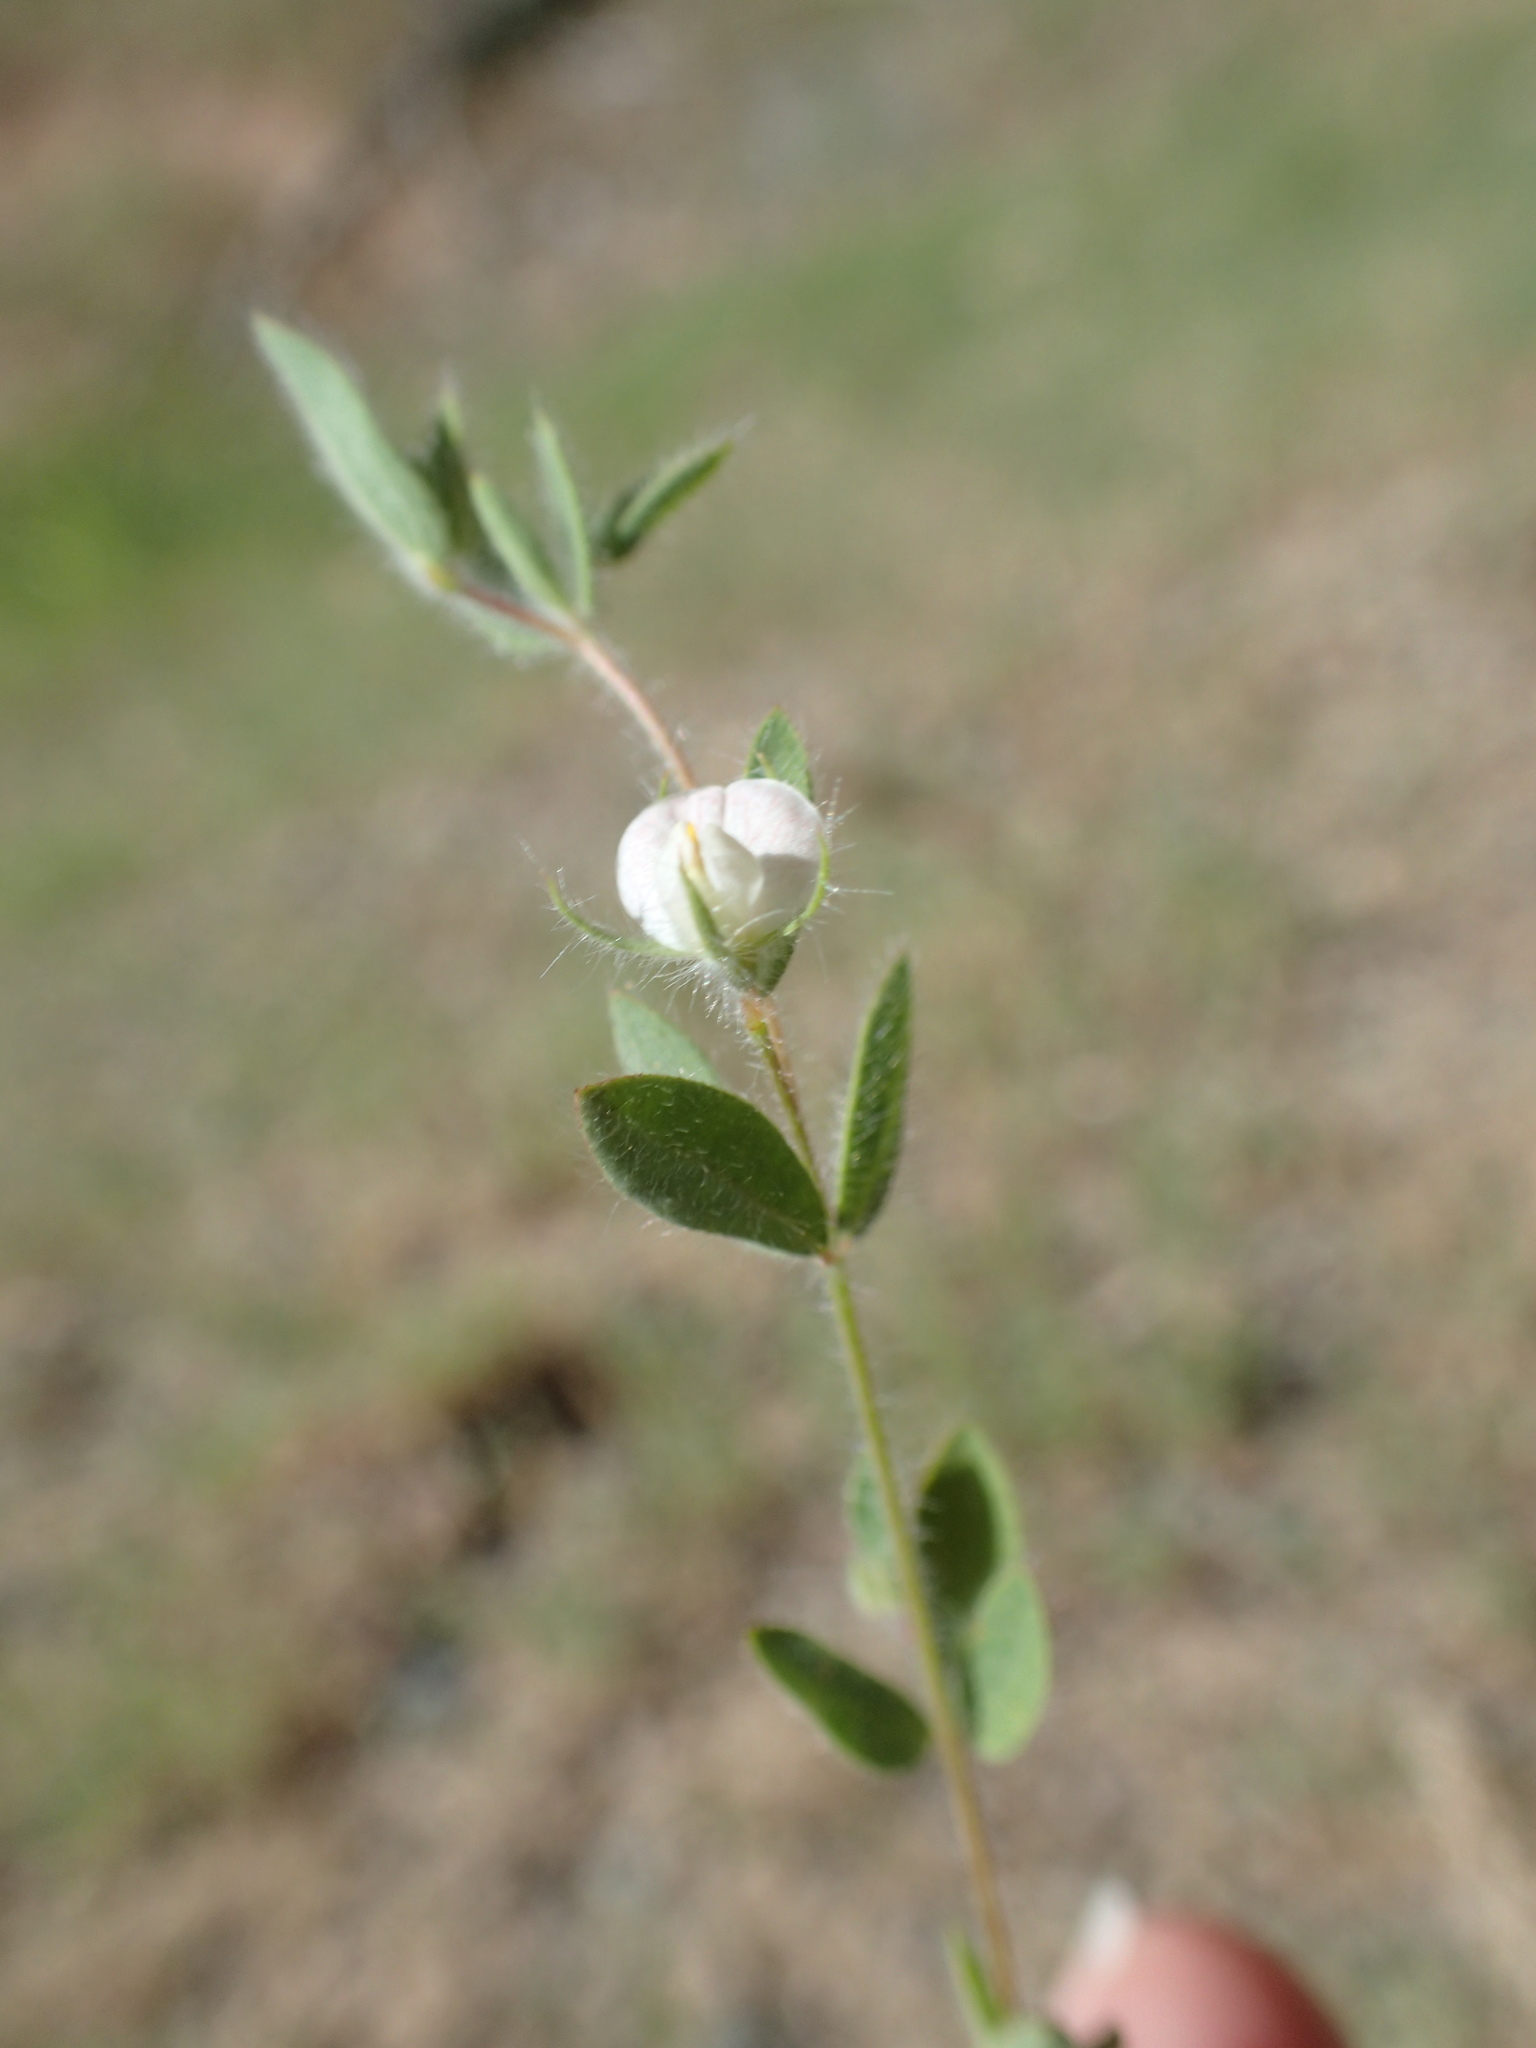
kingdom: Plantae
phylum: Tracheophyta
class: Magnoliopsida
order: Fabales
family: Fabaceae
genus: Acmispon
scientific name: Acmispon americanus
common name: American bird's-foot trefoil
